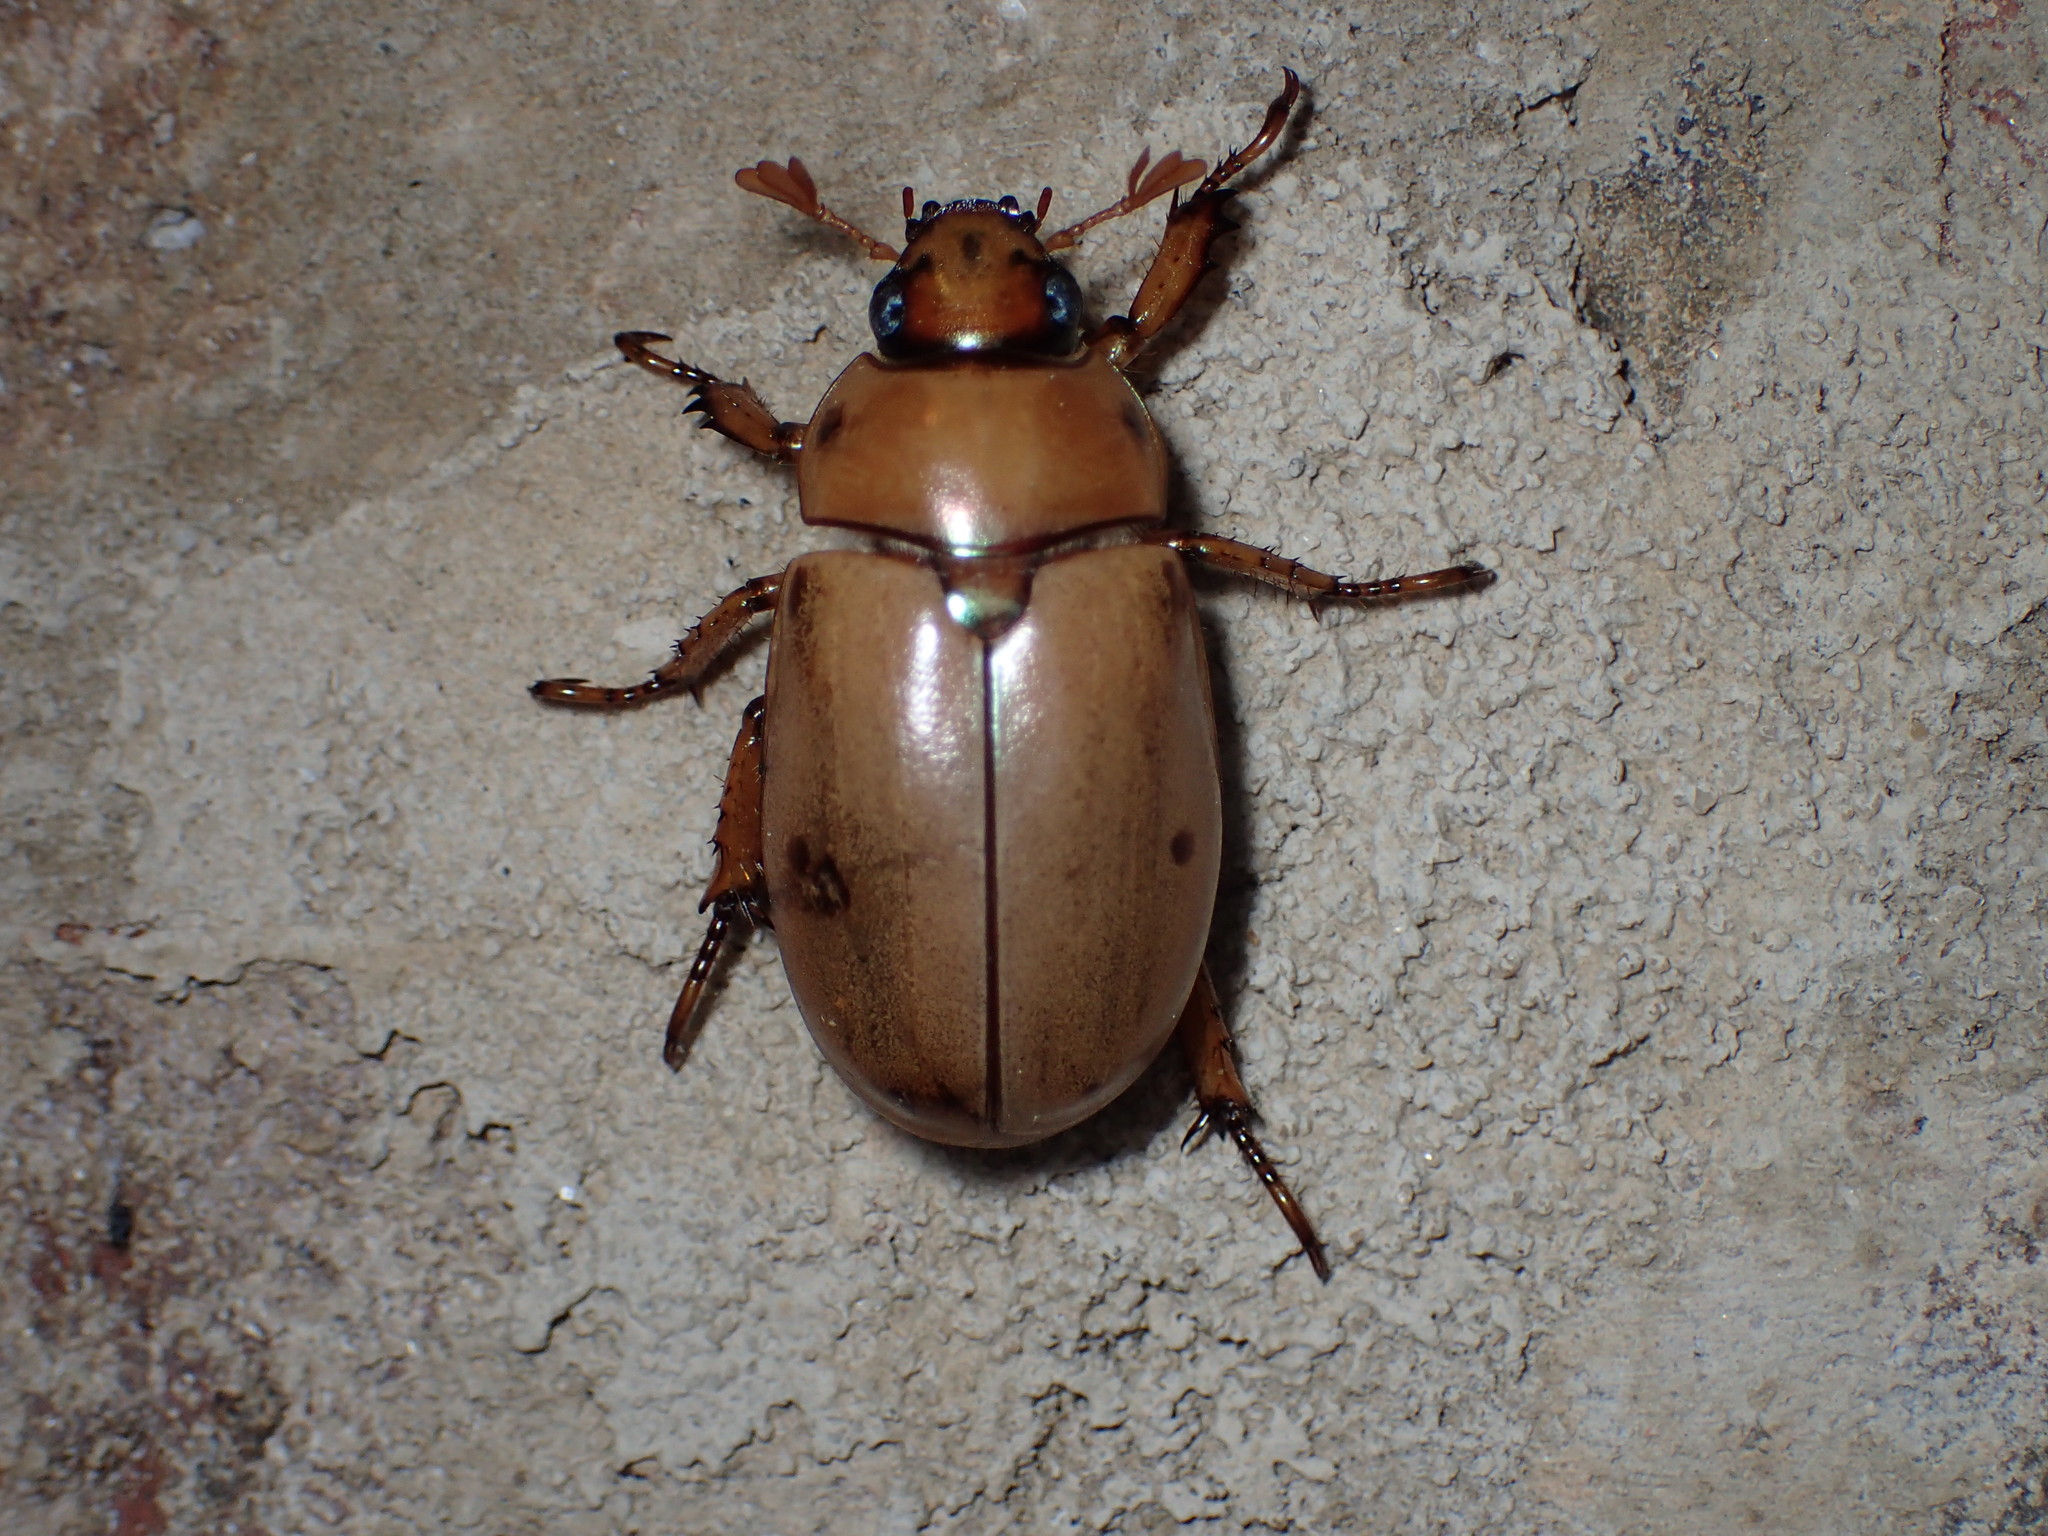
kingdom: Animalia
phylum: Arthropoda
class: Insecta
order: Coleoptera
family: Scarabaeidae
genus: Pelidnota
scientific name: Pelidnota punctata
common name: Grapevine beetle
